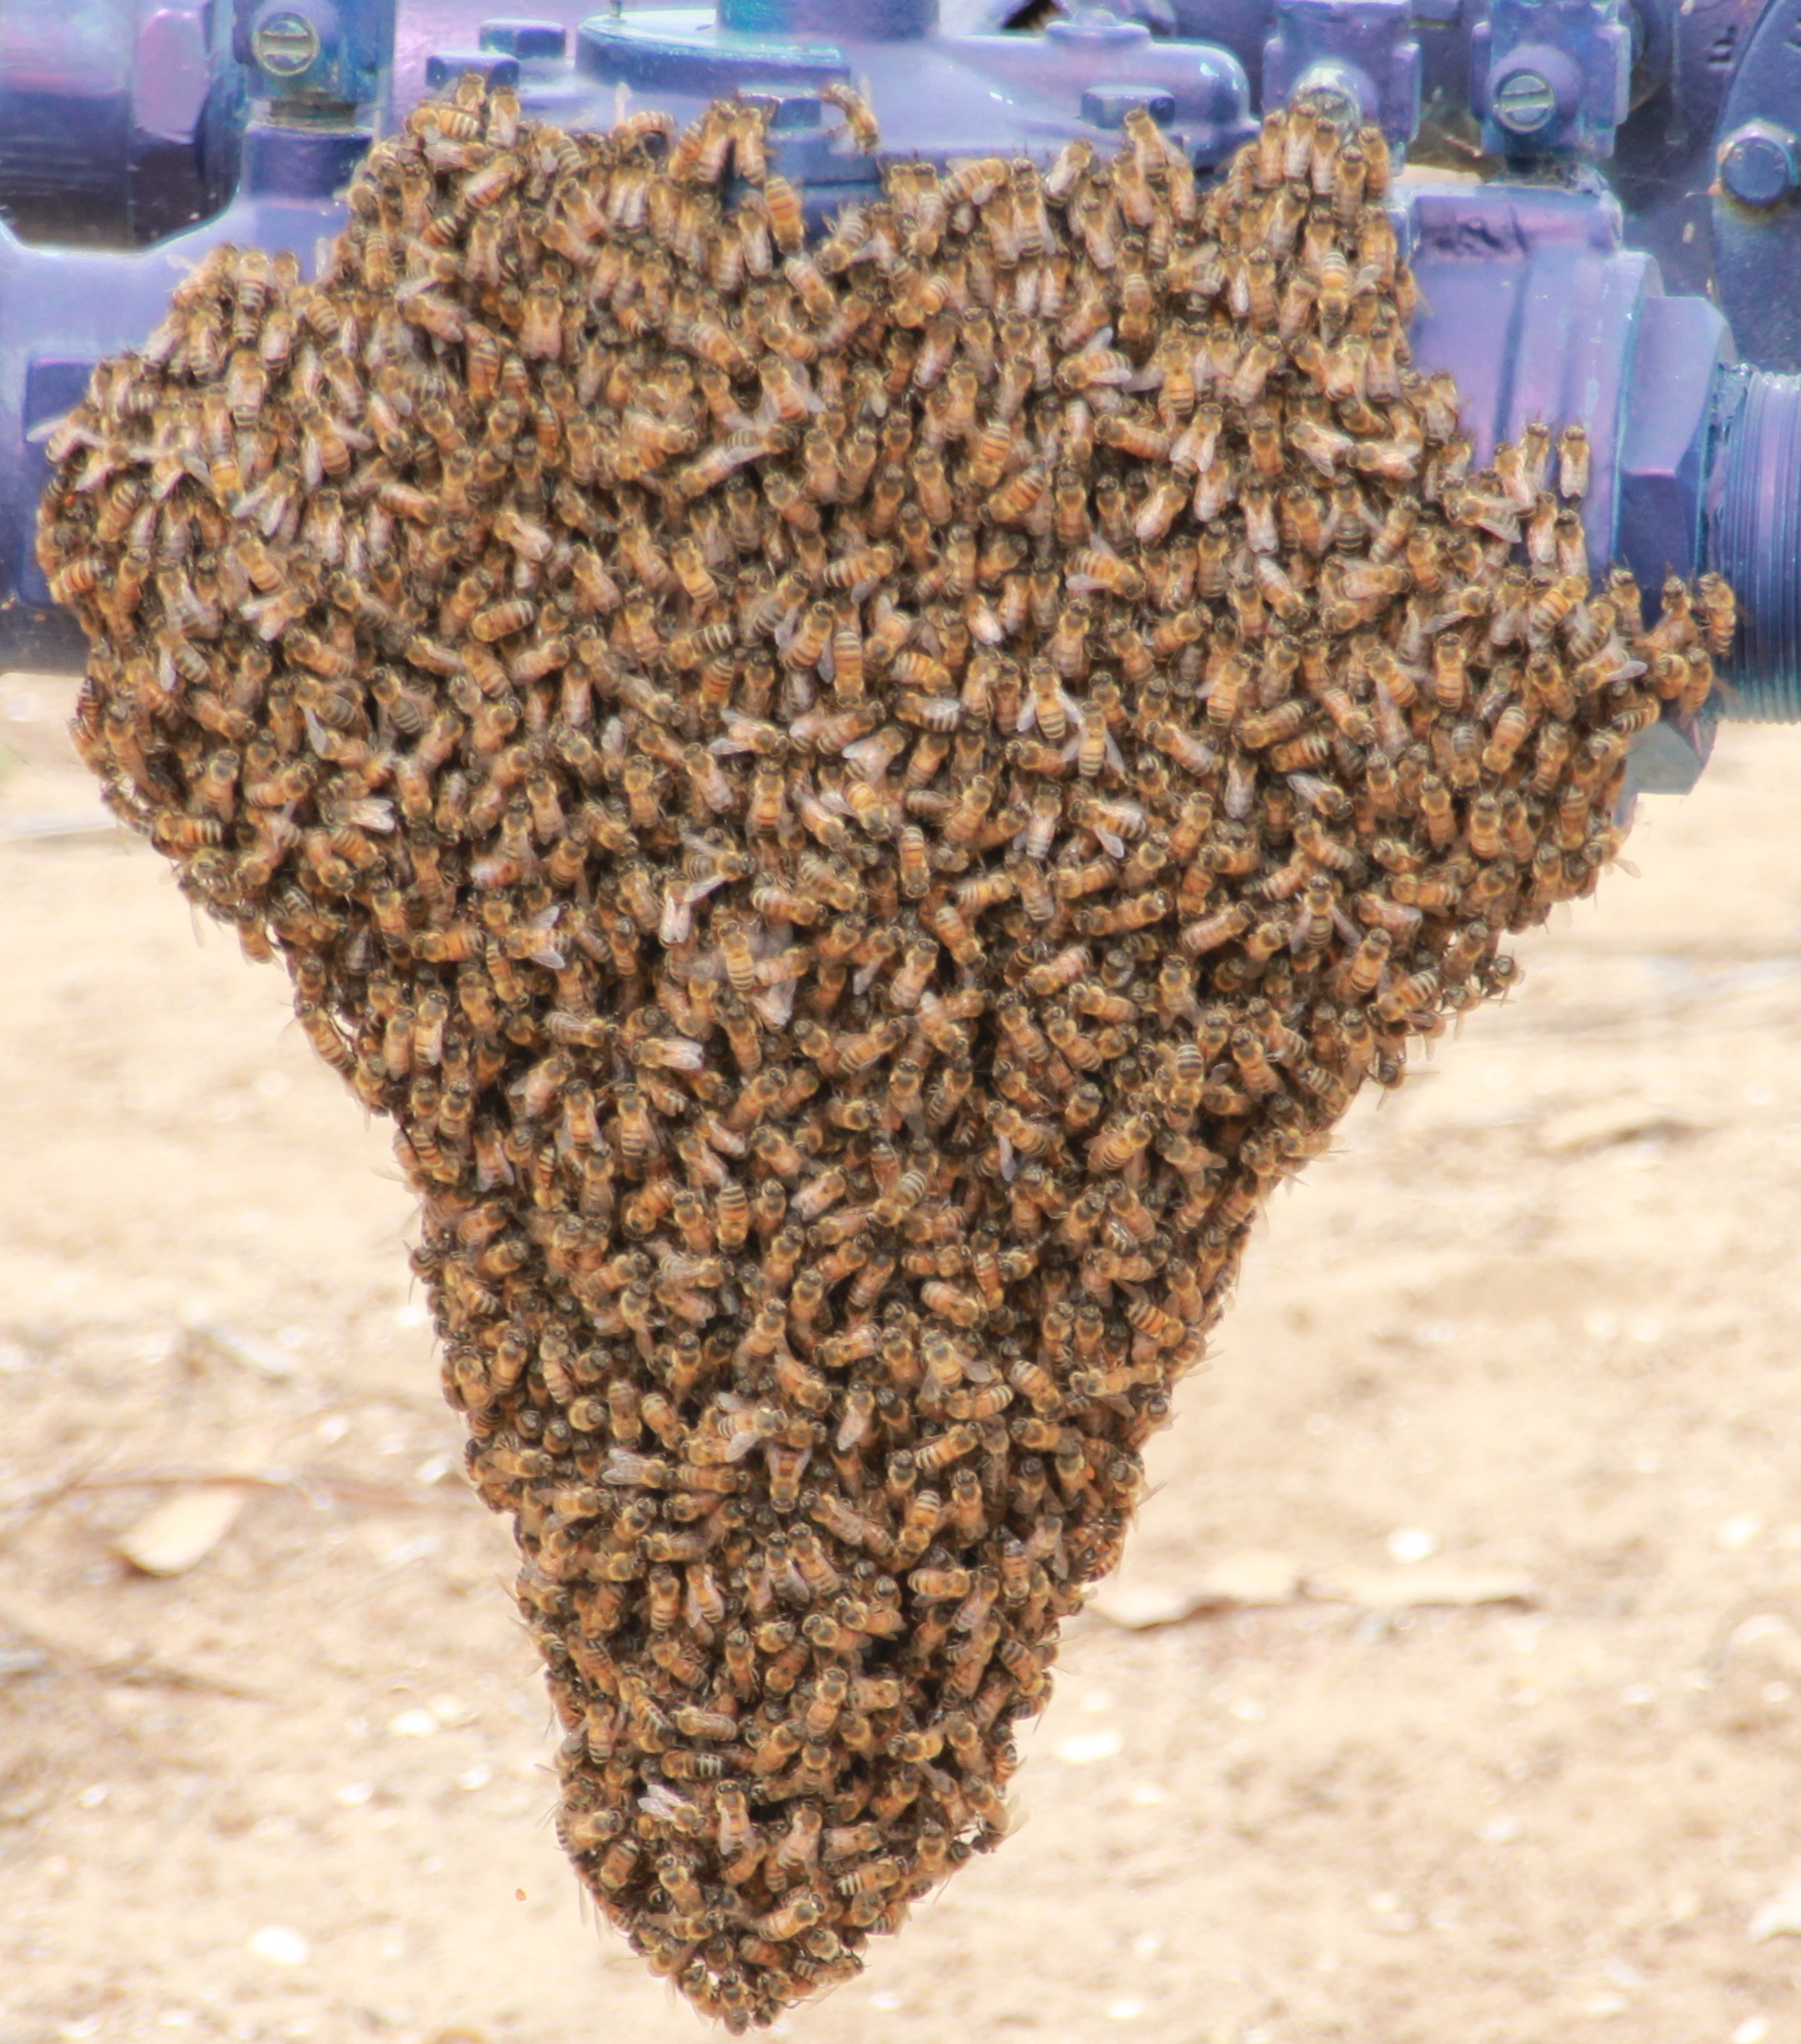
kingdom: Animalia
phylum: Arthropoda
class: Insecta
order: Hymenoptera
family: Apidae
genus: Apis
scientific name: Apis mellifera
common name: Honey bee
